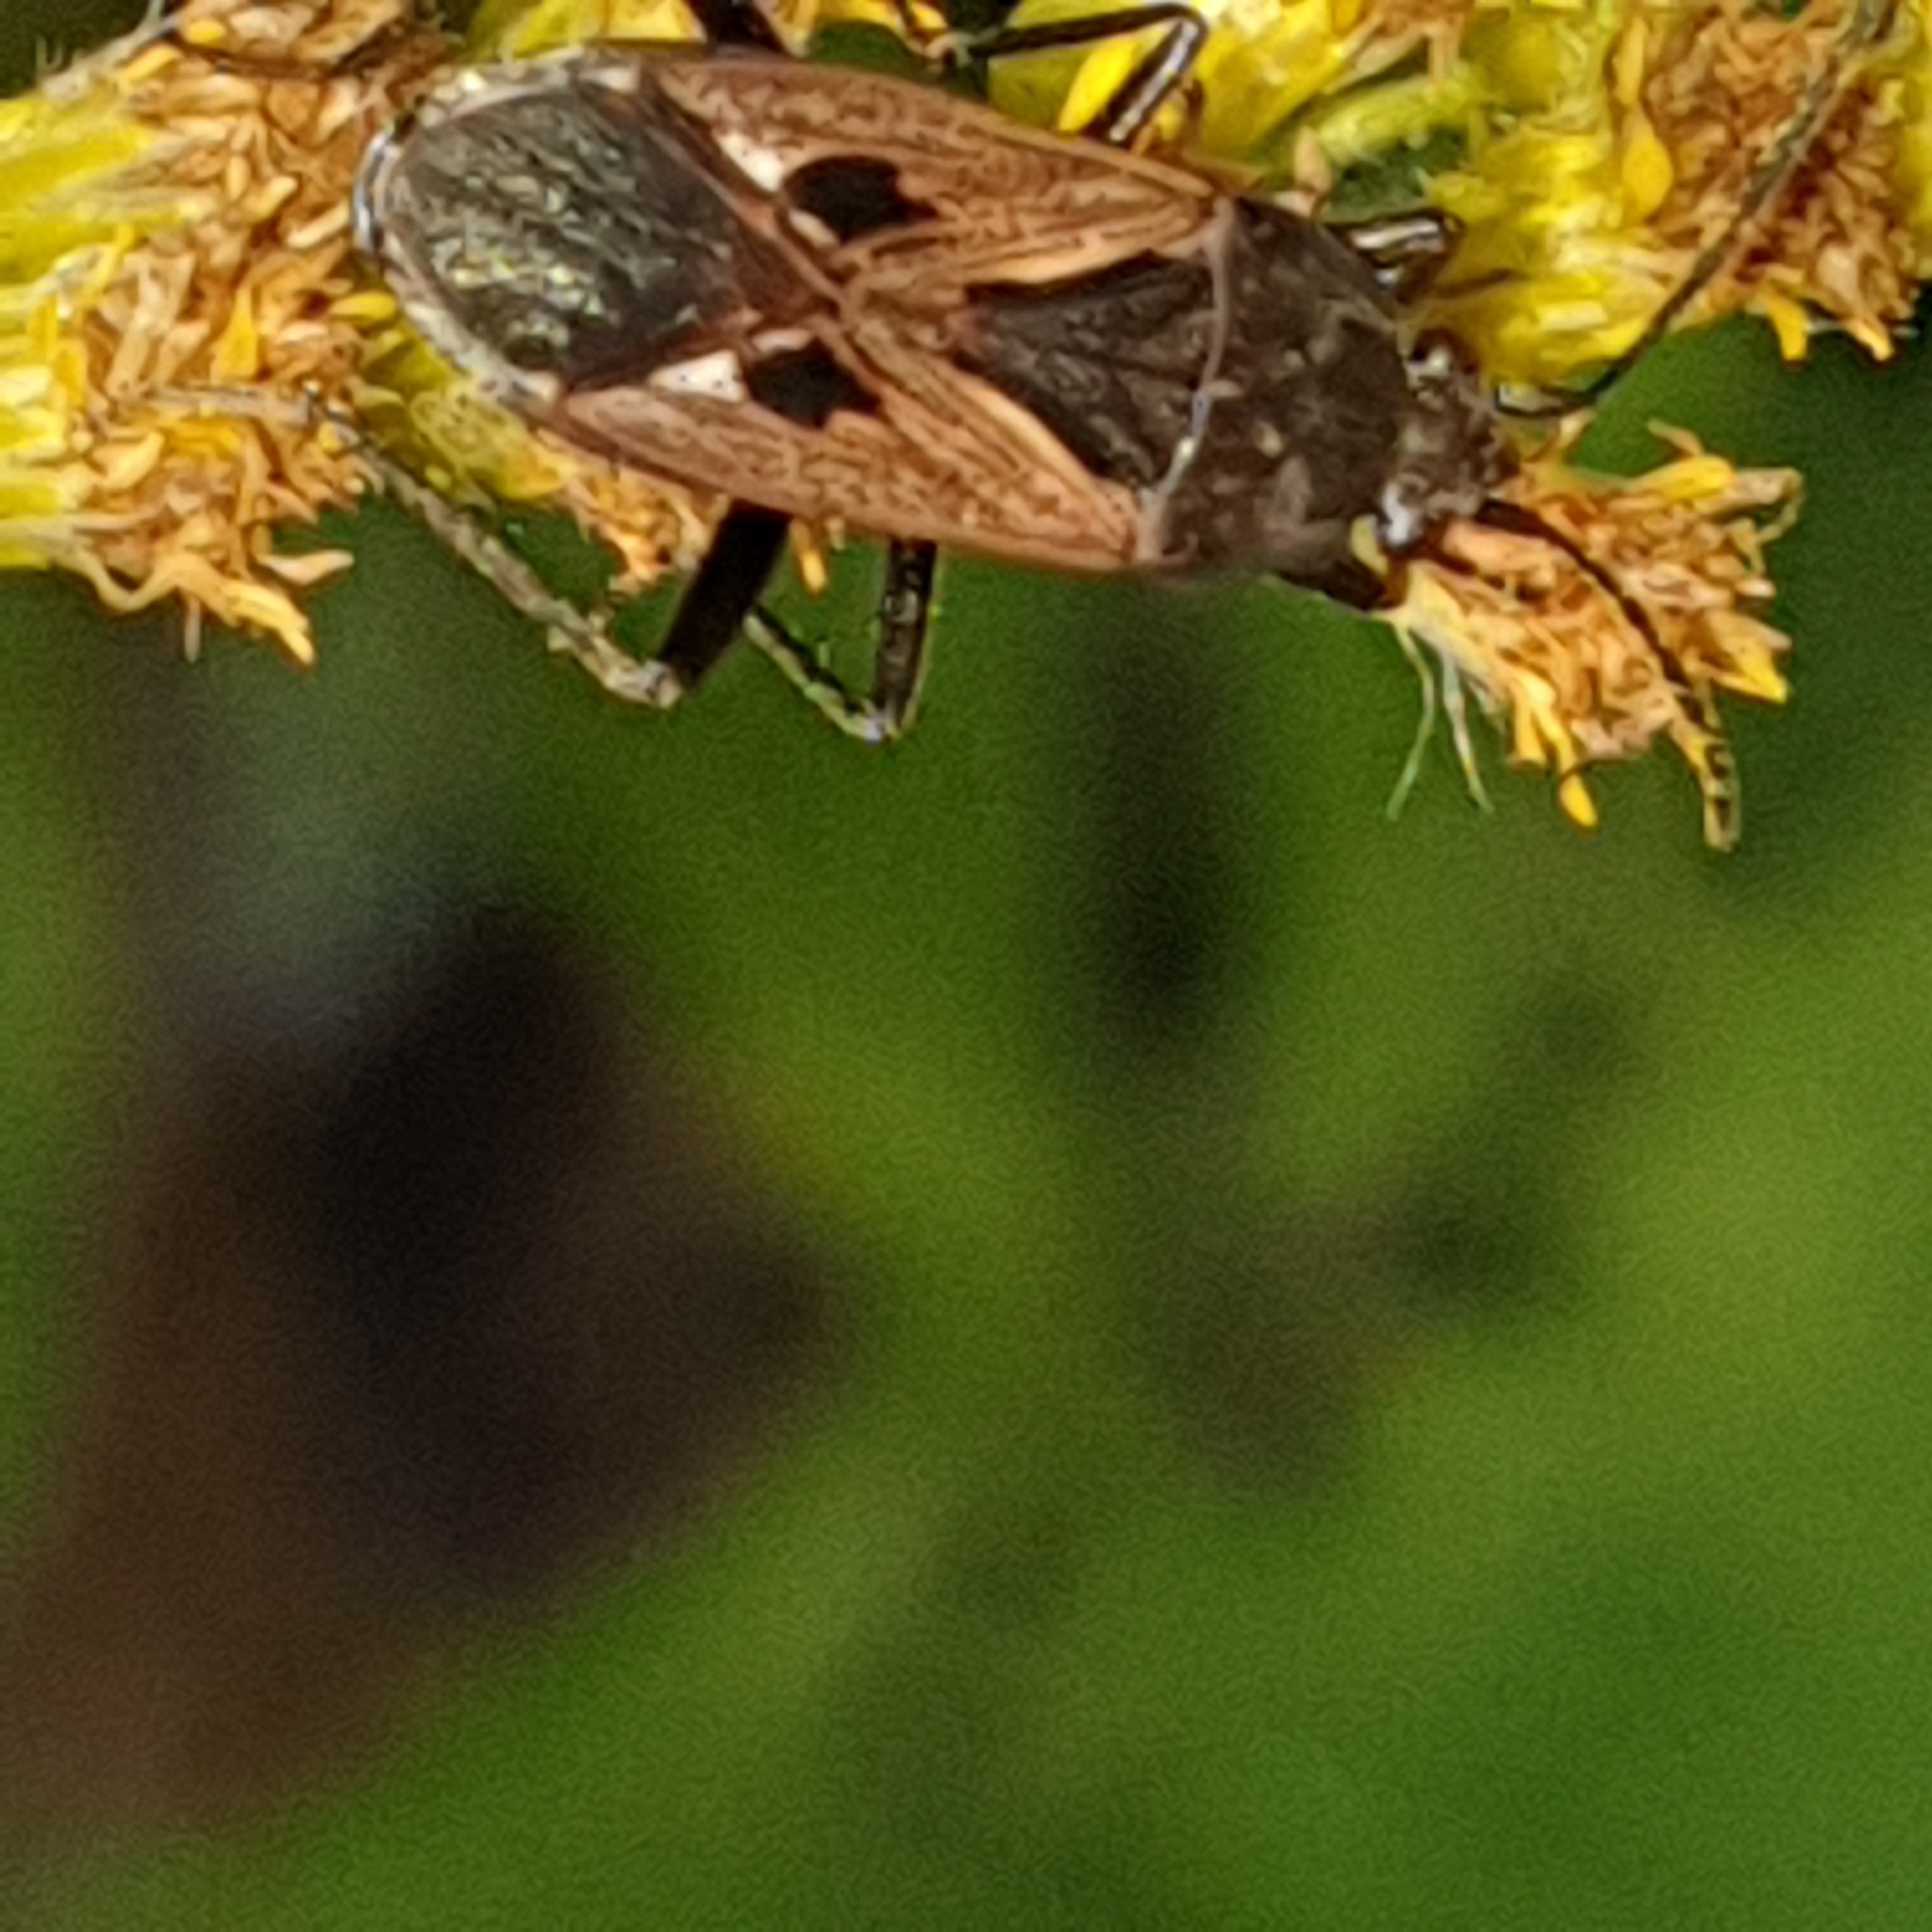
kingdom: Animalia
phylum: Arthropoda
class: Insecta
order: Hemiptera
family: Rhyparochromidae
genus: Rhyparochromus
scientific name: Rhyparochromus pini
